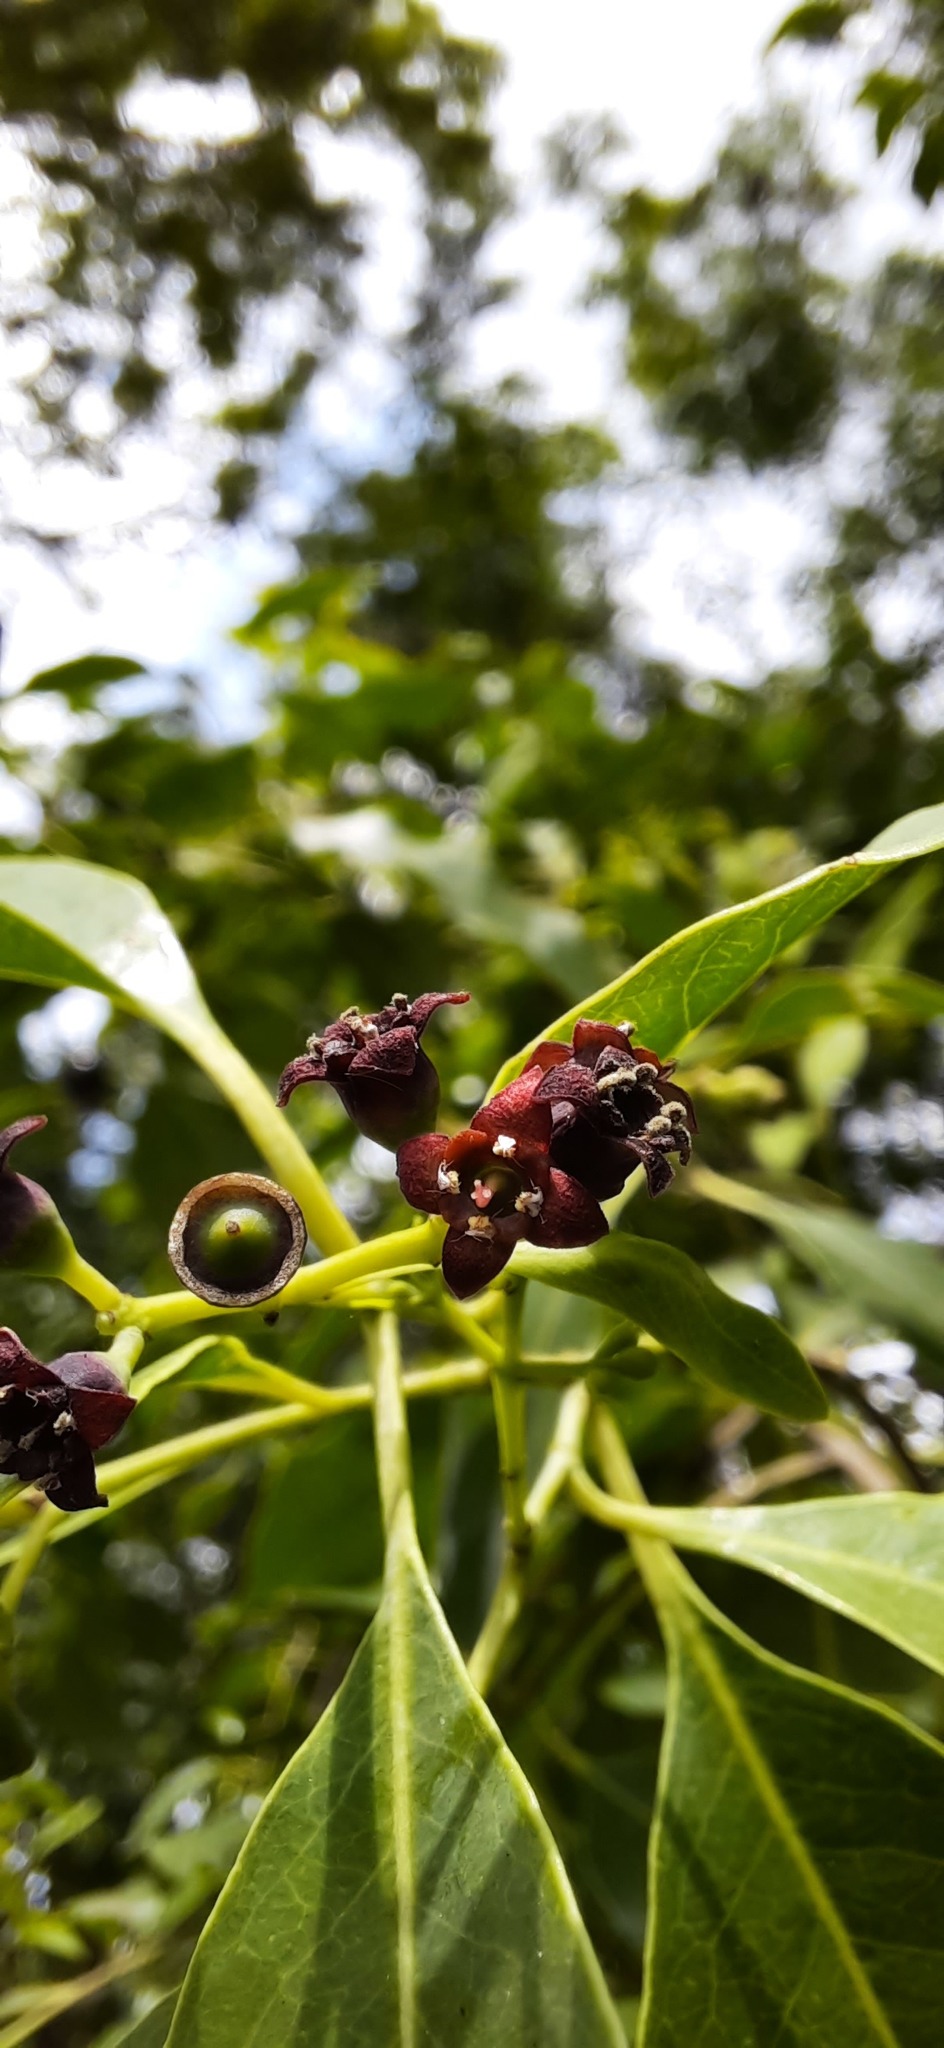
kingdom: Plantae
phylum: Tracheophyta
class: Magnoliopsida
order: Santalales
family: Santalaceae
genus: Santalum
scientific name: Santalum album
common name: Indian sandalwood
